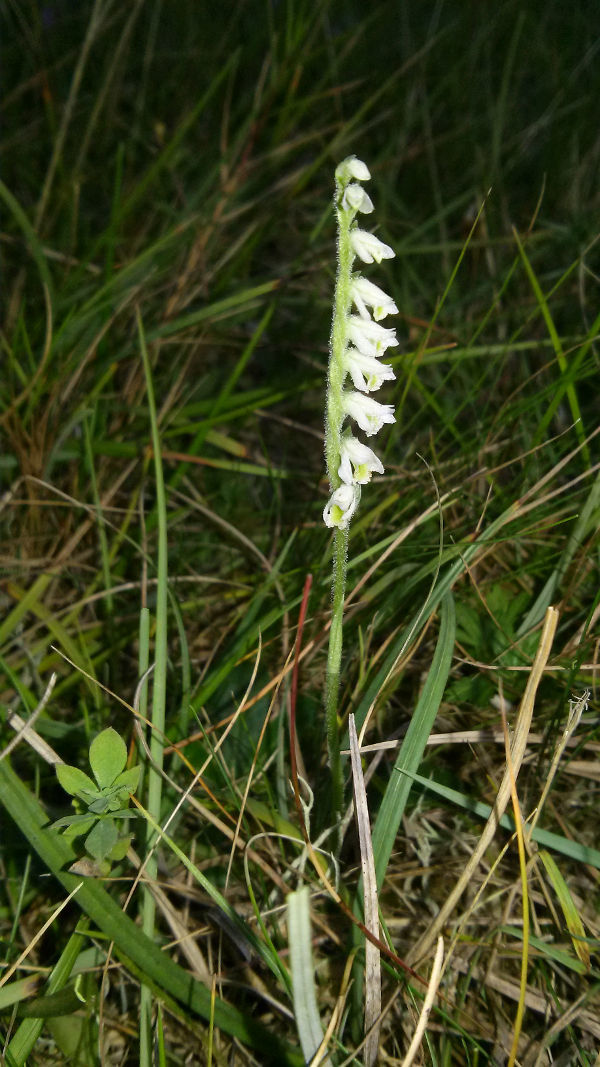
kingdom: Plantae
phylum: Tracheophyta
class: Liliopsida
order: Asparagales
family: Orchidaceae
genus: Spiranthes
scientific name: Spiranthes spiralis
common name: Autumn lady's-tresses
